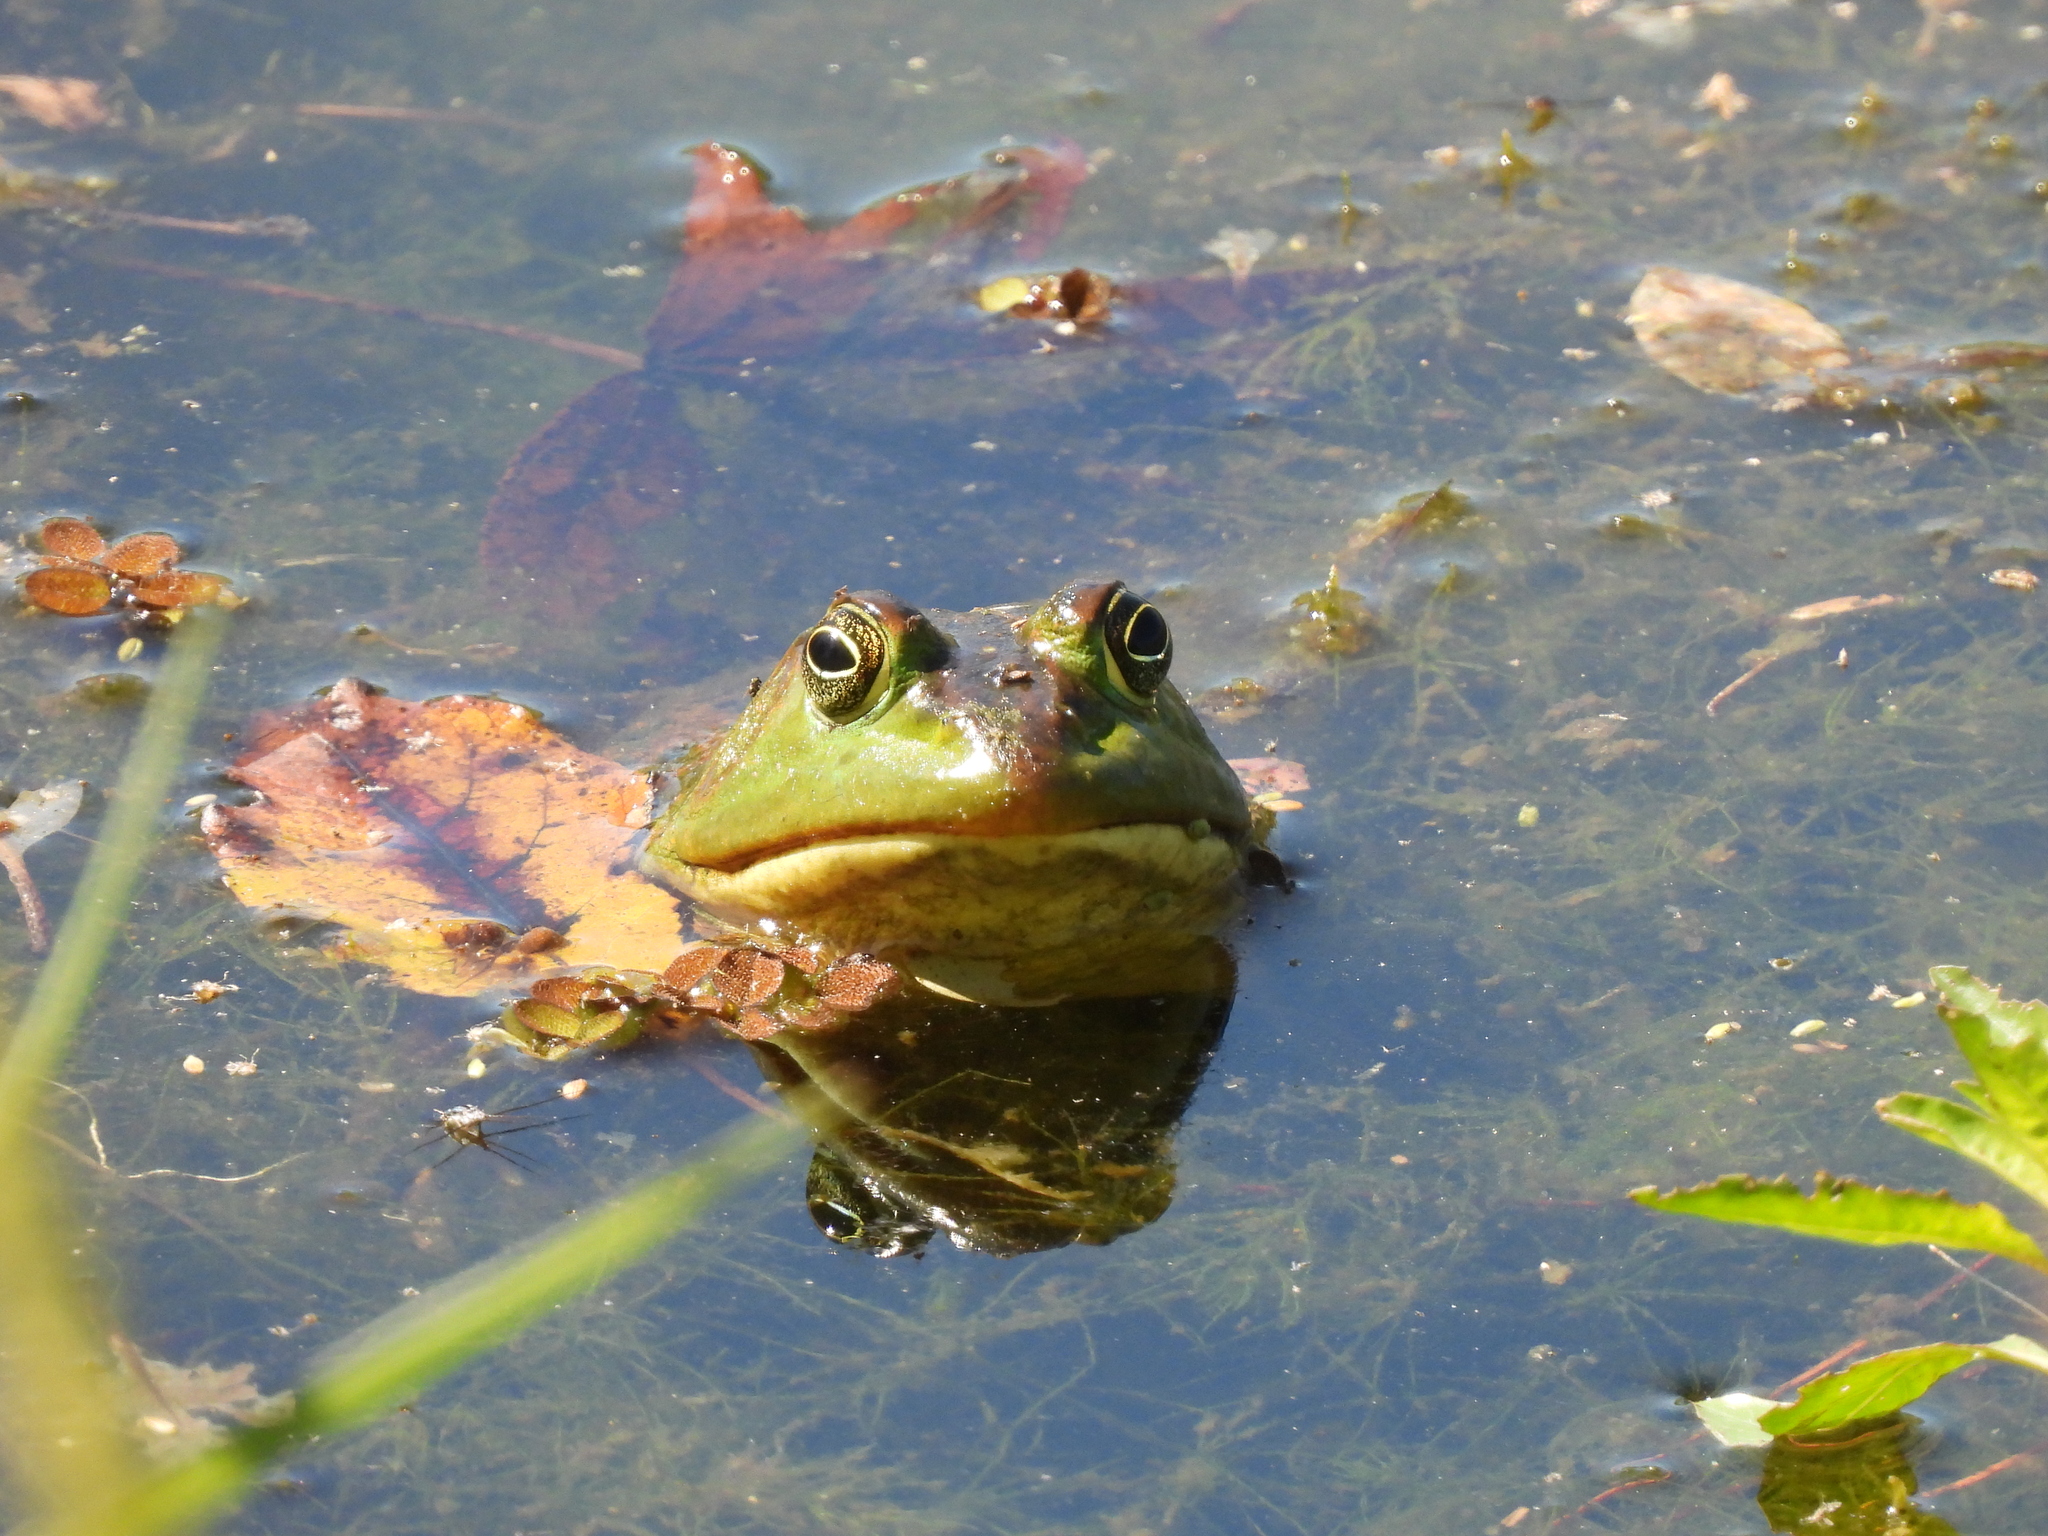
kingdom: Animalia
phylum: Chordata
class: Amphibia
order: Anura
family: Ranidae
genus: Lithobates
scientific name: Lithobates catesbeianus
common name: American bullfrog
